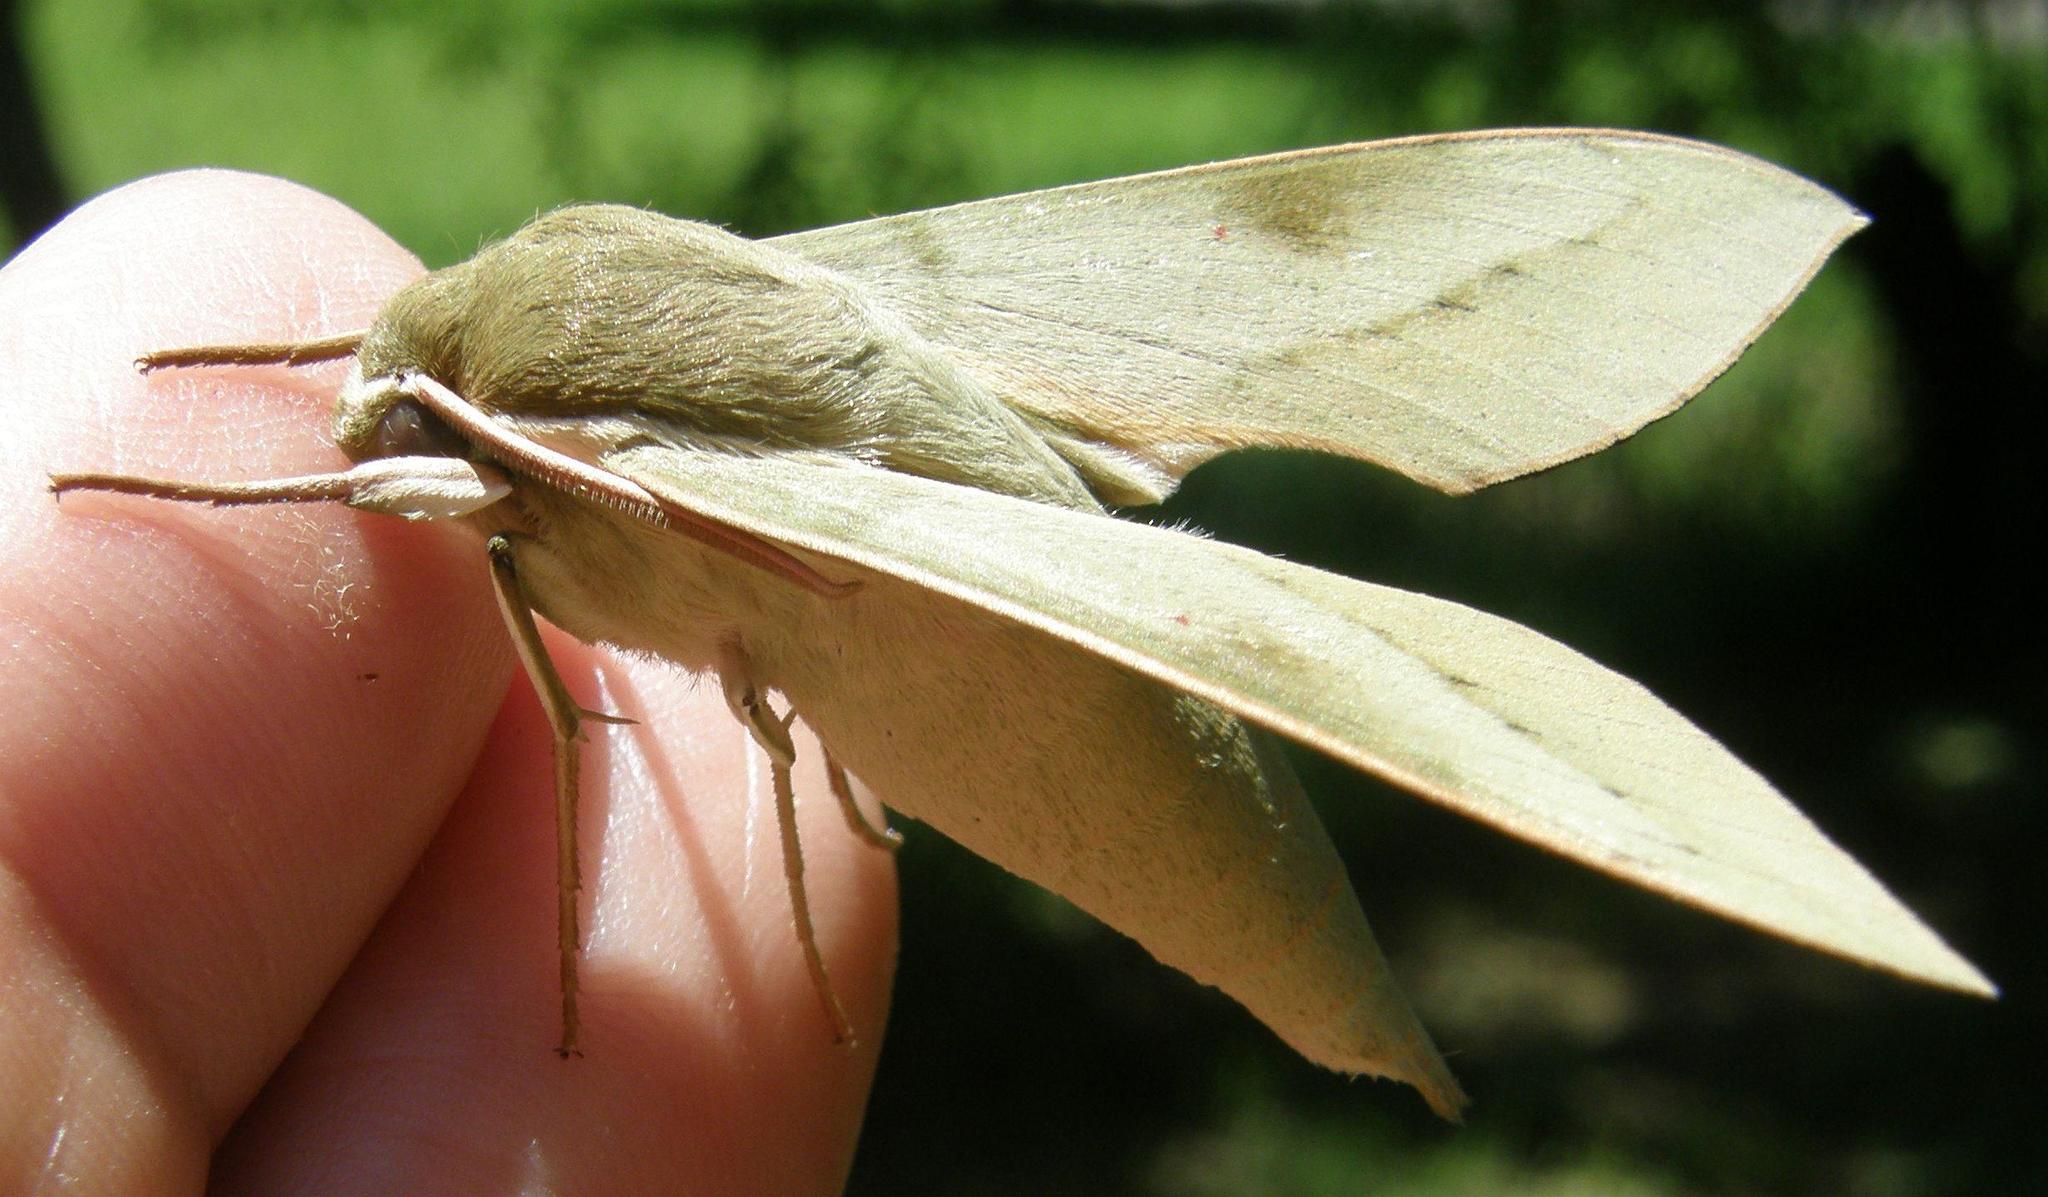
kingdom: Animalia
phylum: Arthropoda
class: Insecta
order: Lepidoptera
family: Sphingidae
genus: Theretra
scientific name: Theretra capensis
